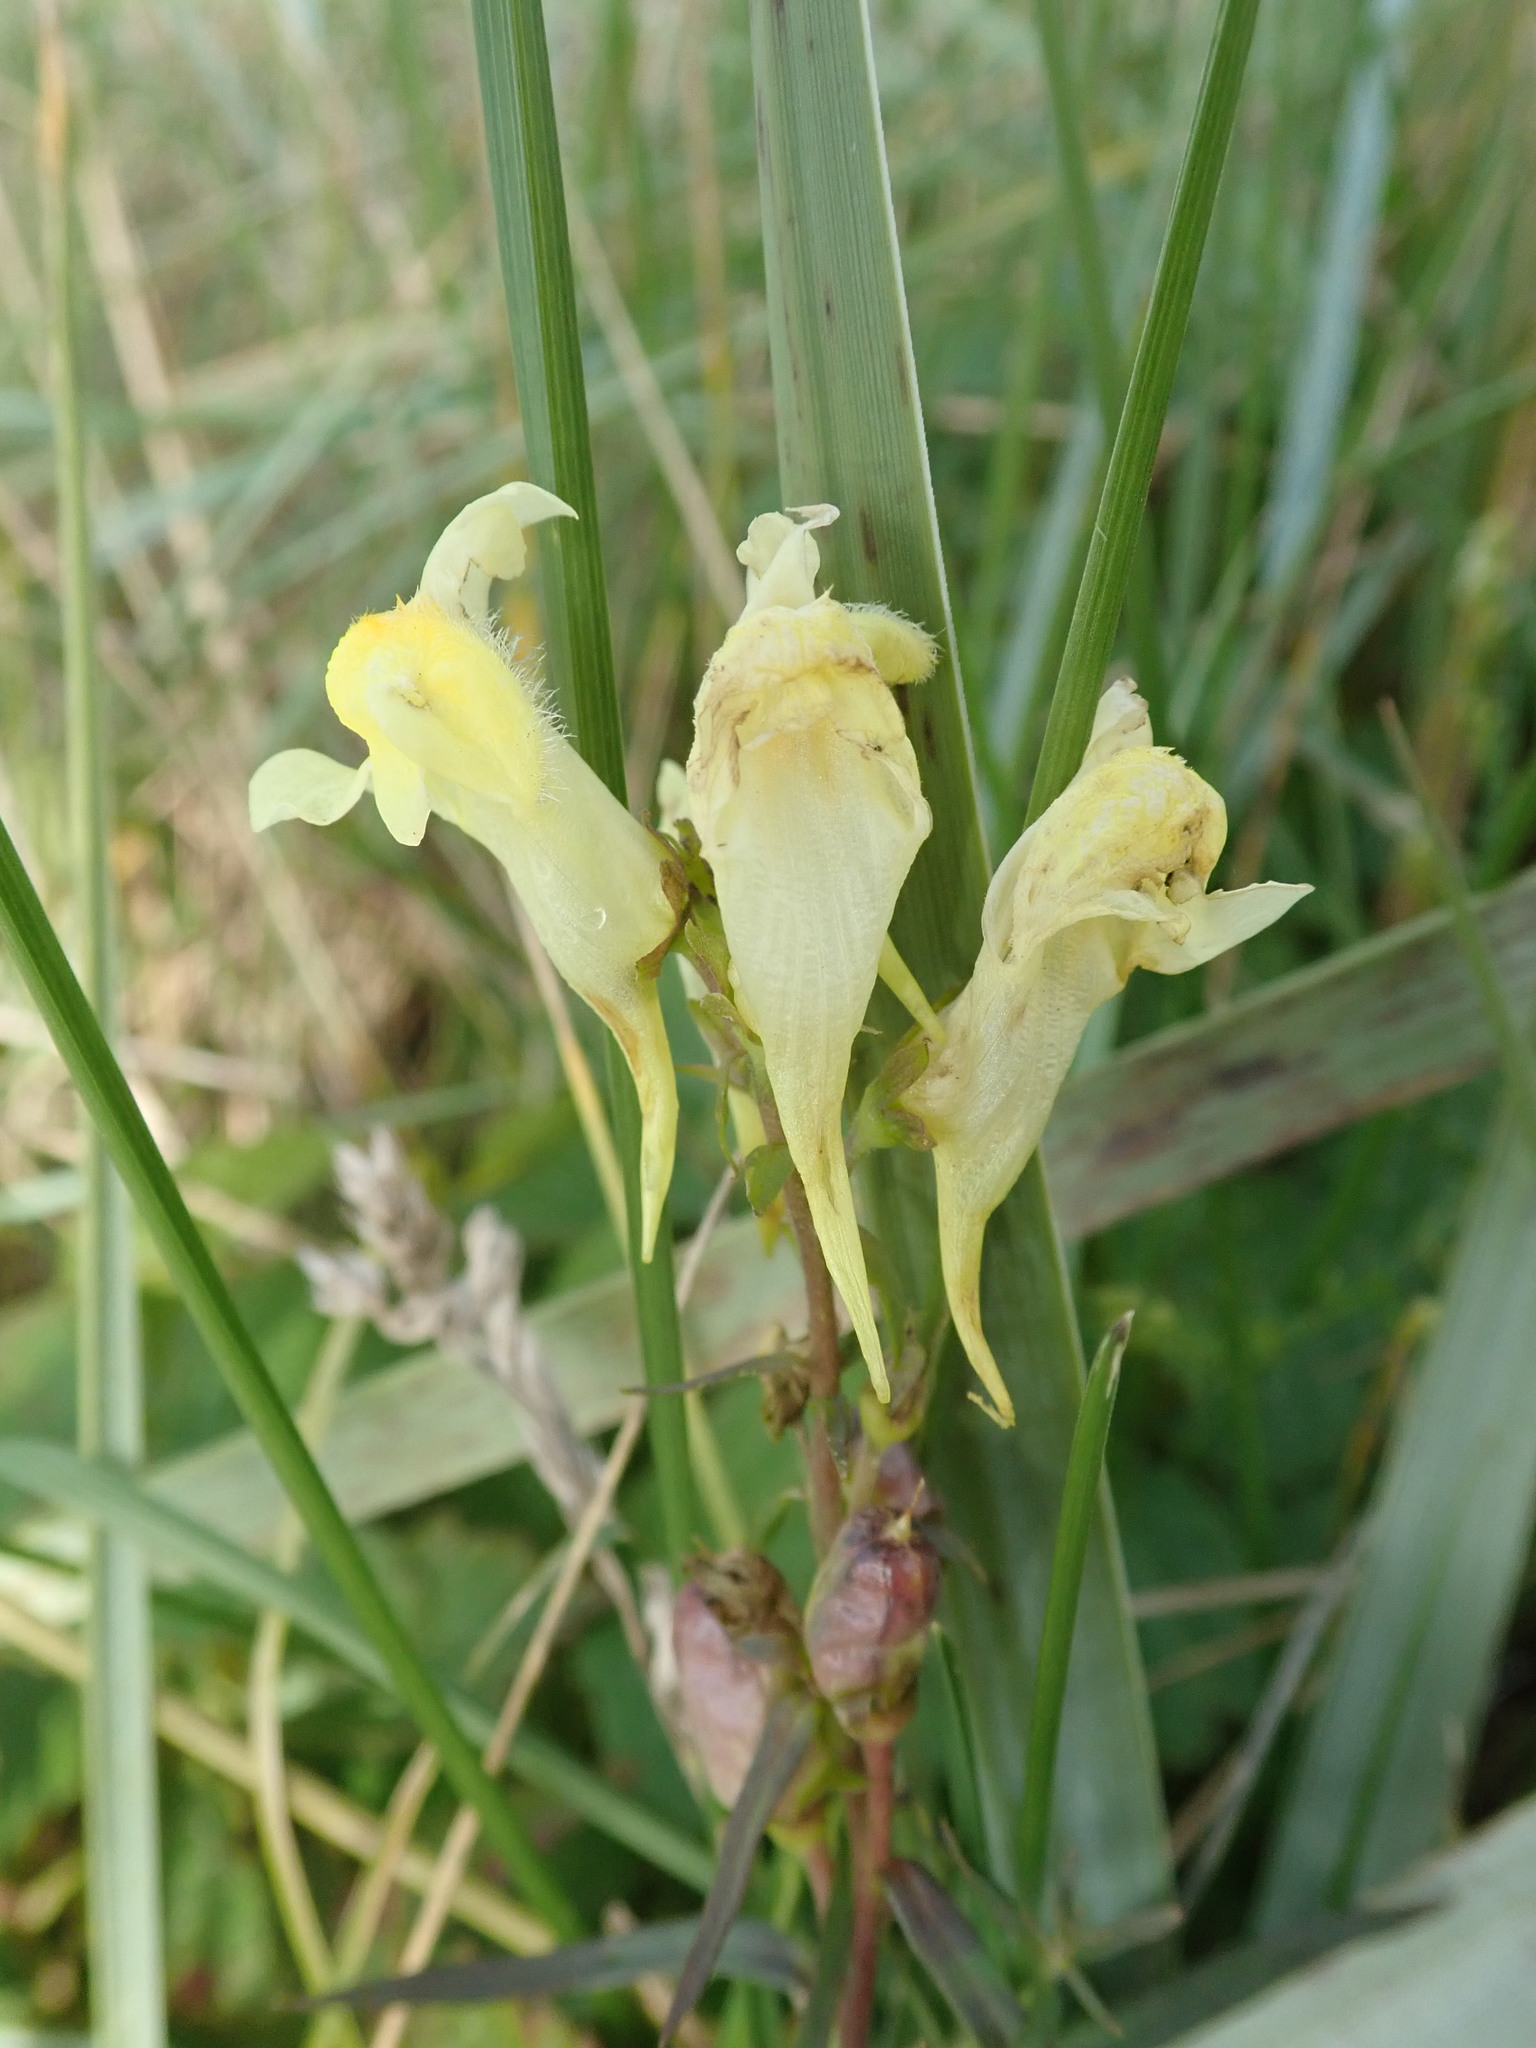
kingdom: Plantae
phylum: Tracheophyta
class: Magnoliopsida
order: Lamiales
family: Plantaginaceae
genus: Linaria
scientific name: Linaria vulgaris
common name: Butter and eggs
